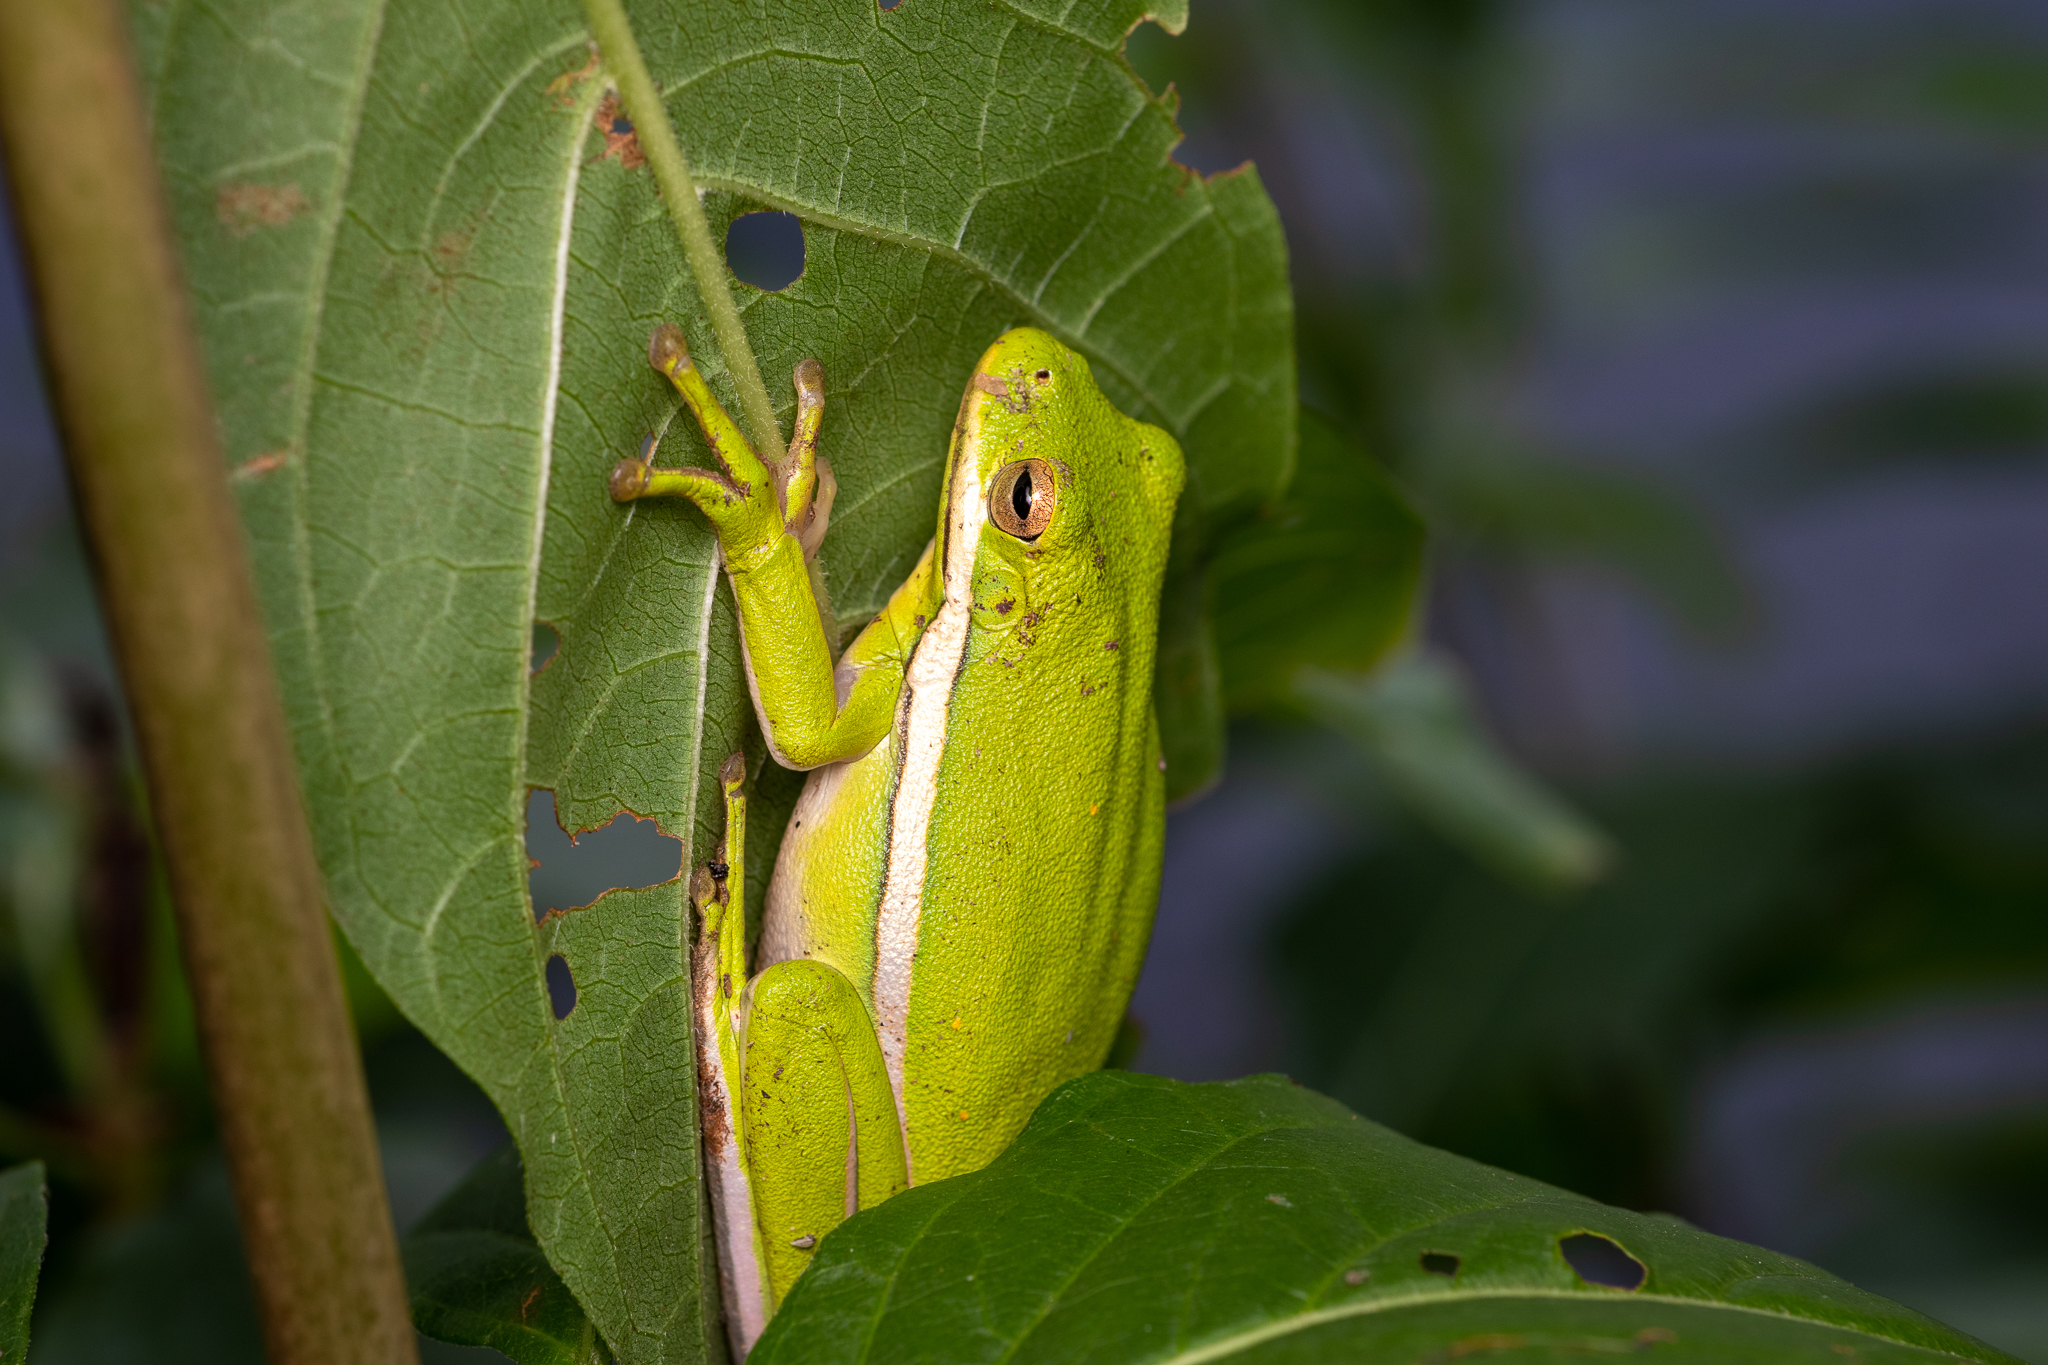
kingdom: Animalia
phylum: Chordata
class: Amphibia
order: Anura
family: Hylidae
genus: Dryophytes
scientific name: Dryophytes cinereus
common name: Green treefrog
